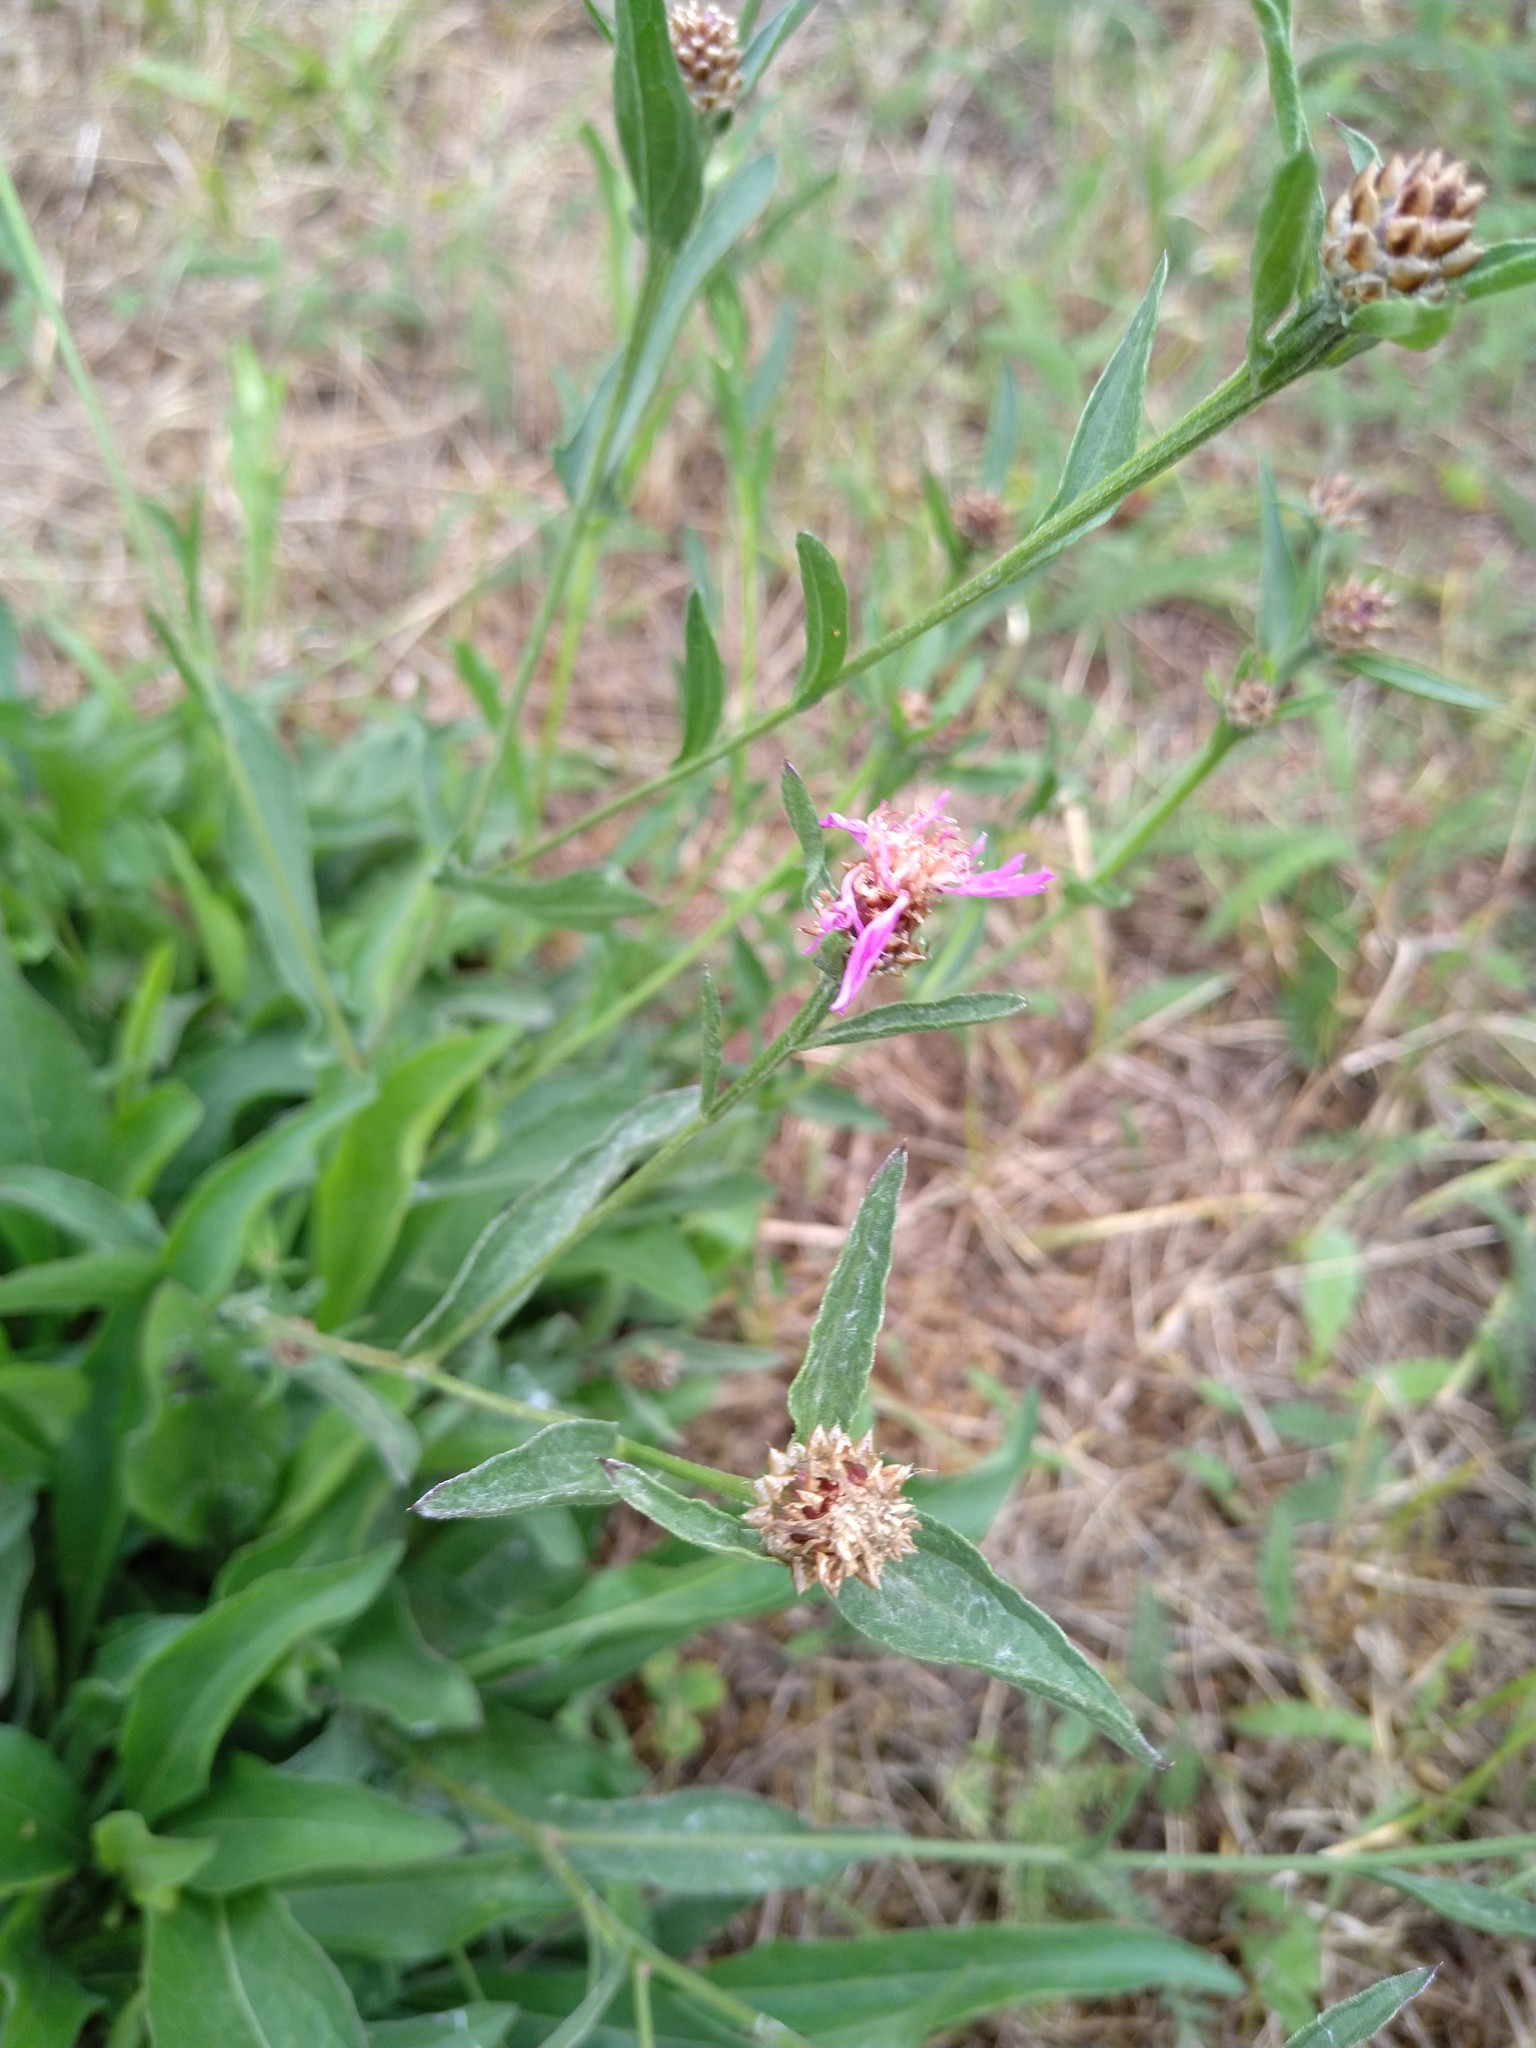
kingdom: Plantae
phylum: Tracheophyta
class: Magnoliopsida
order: Asterales
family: Asteraceae
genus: Centaurea
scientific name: Centaurea jacea
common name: Brown knapweed
